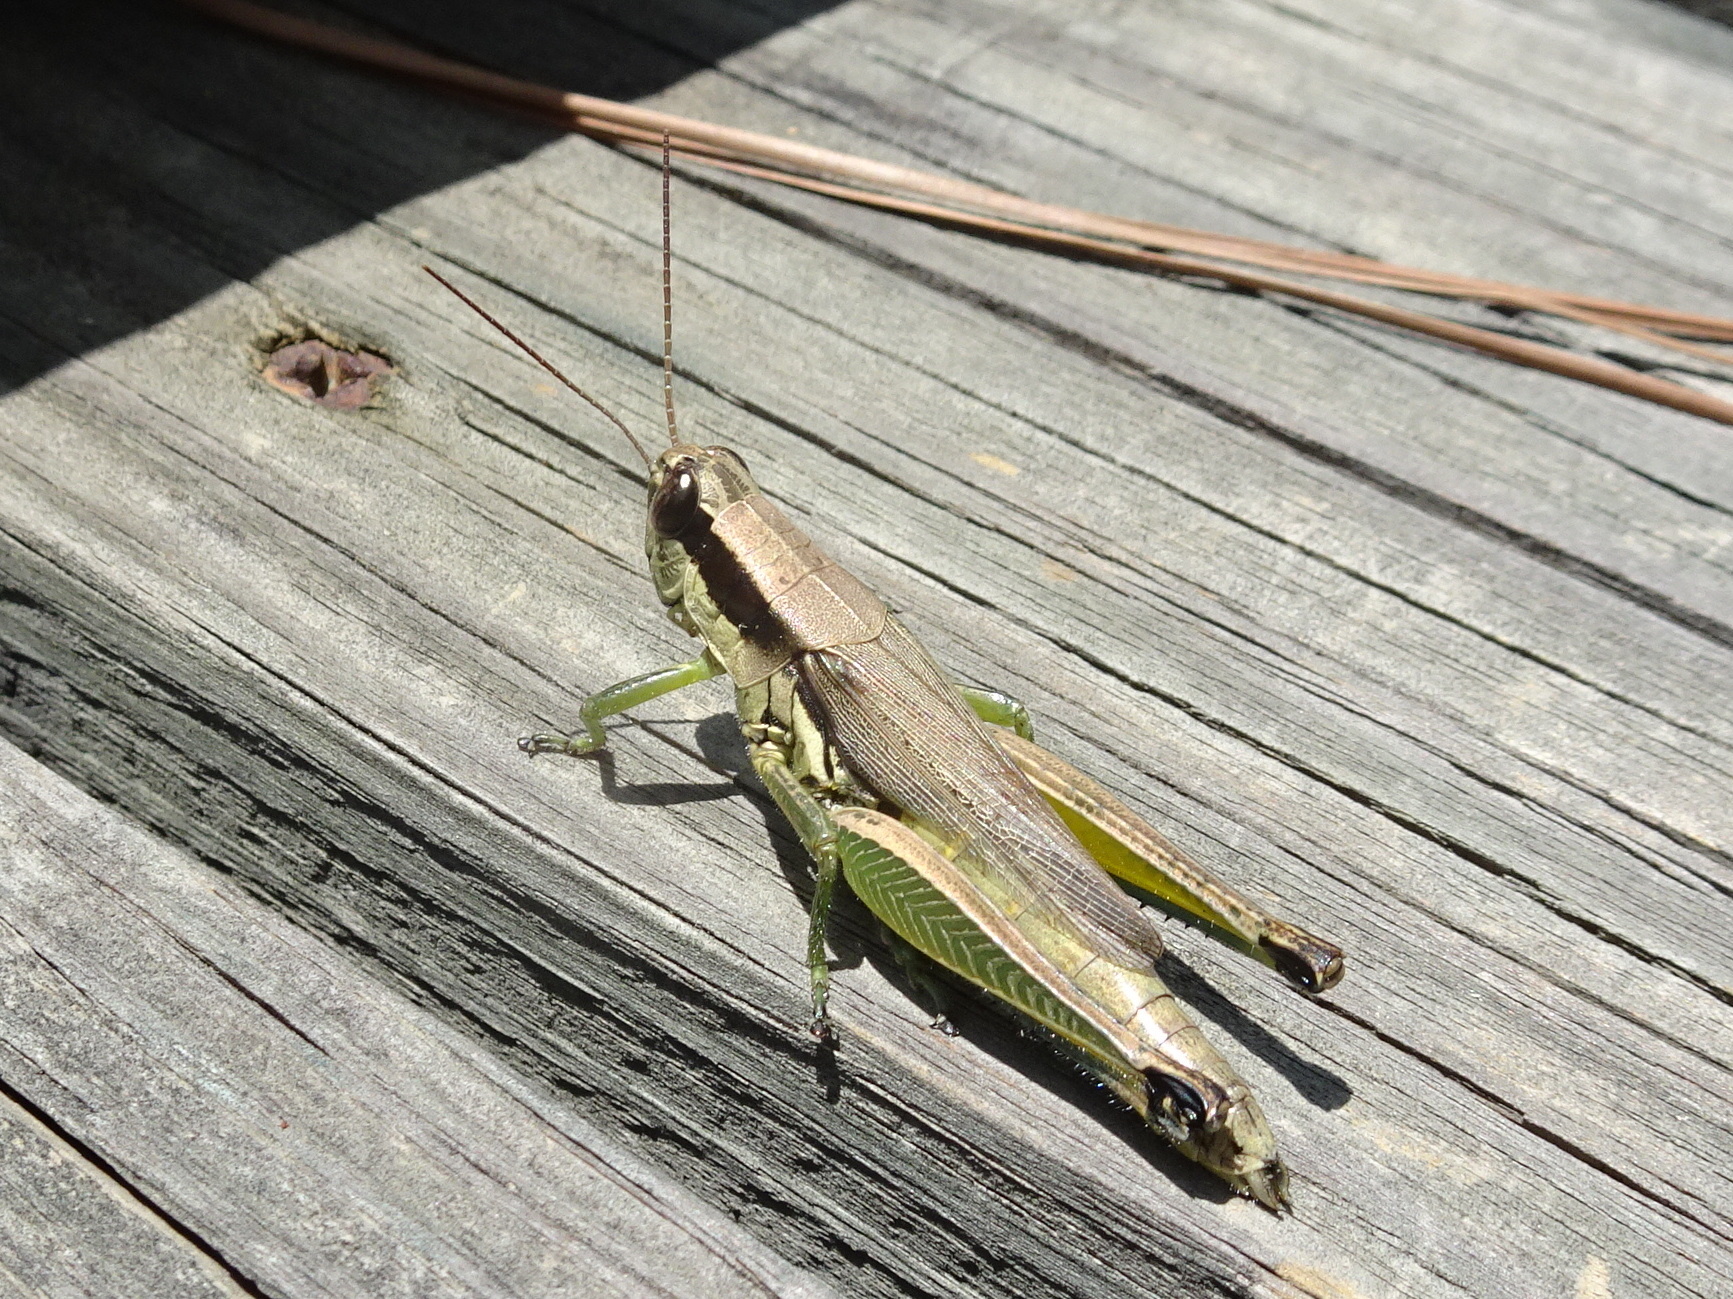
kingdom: Animalia
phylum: Arthropoda
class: Insecta
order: Orthoptera
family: Acrididae
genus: Paroxya
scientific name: Paroxya clavuligera
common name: Olive-green swamp grasshopper
